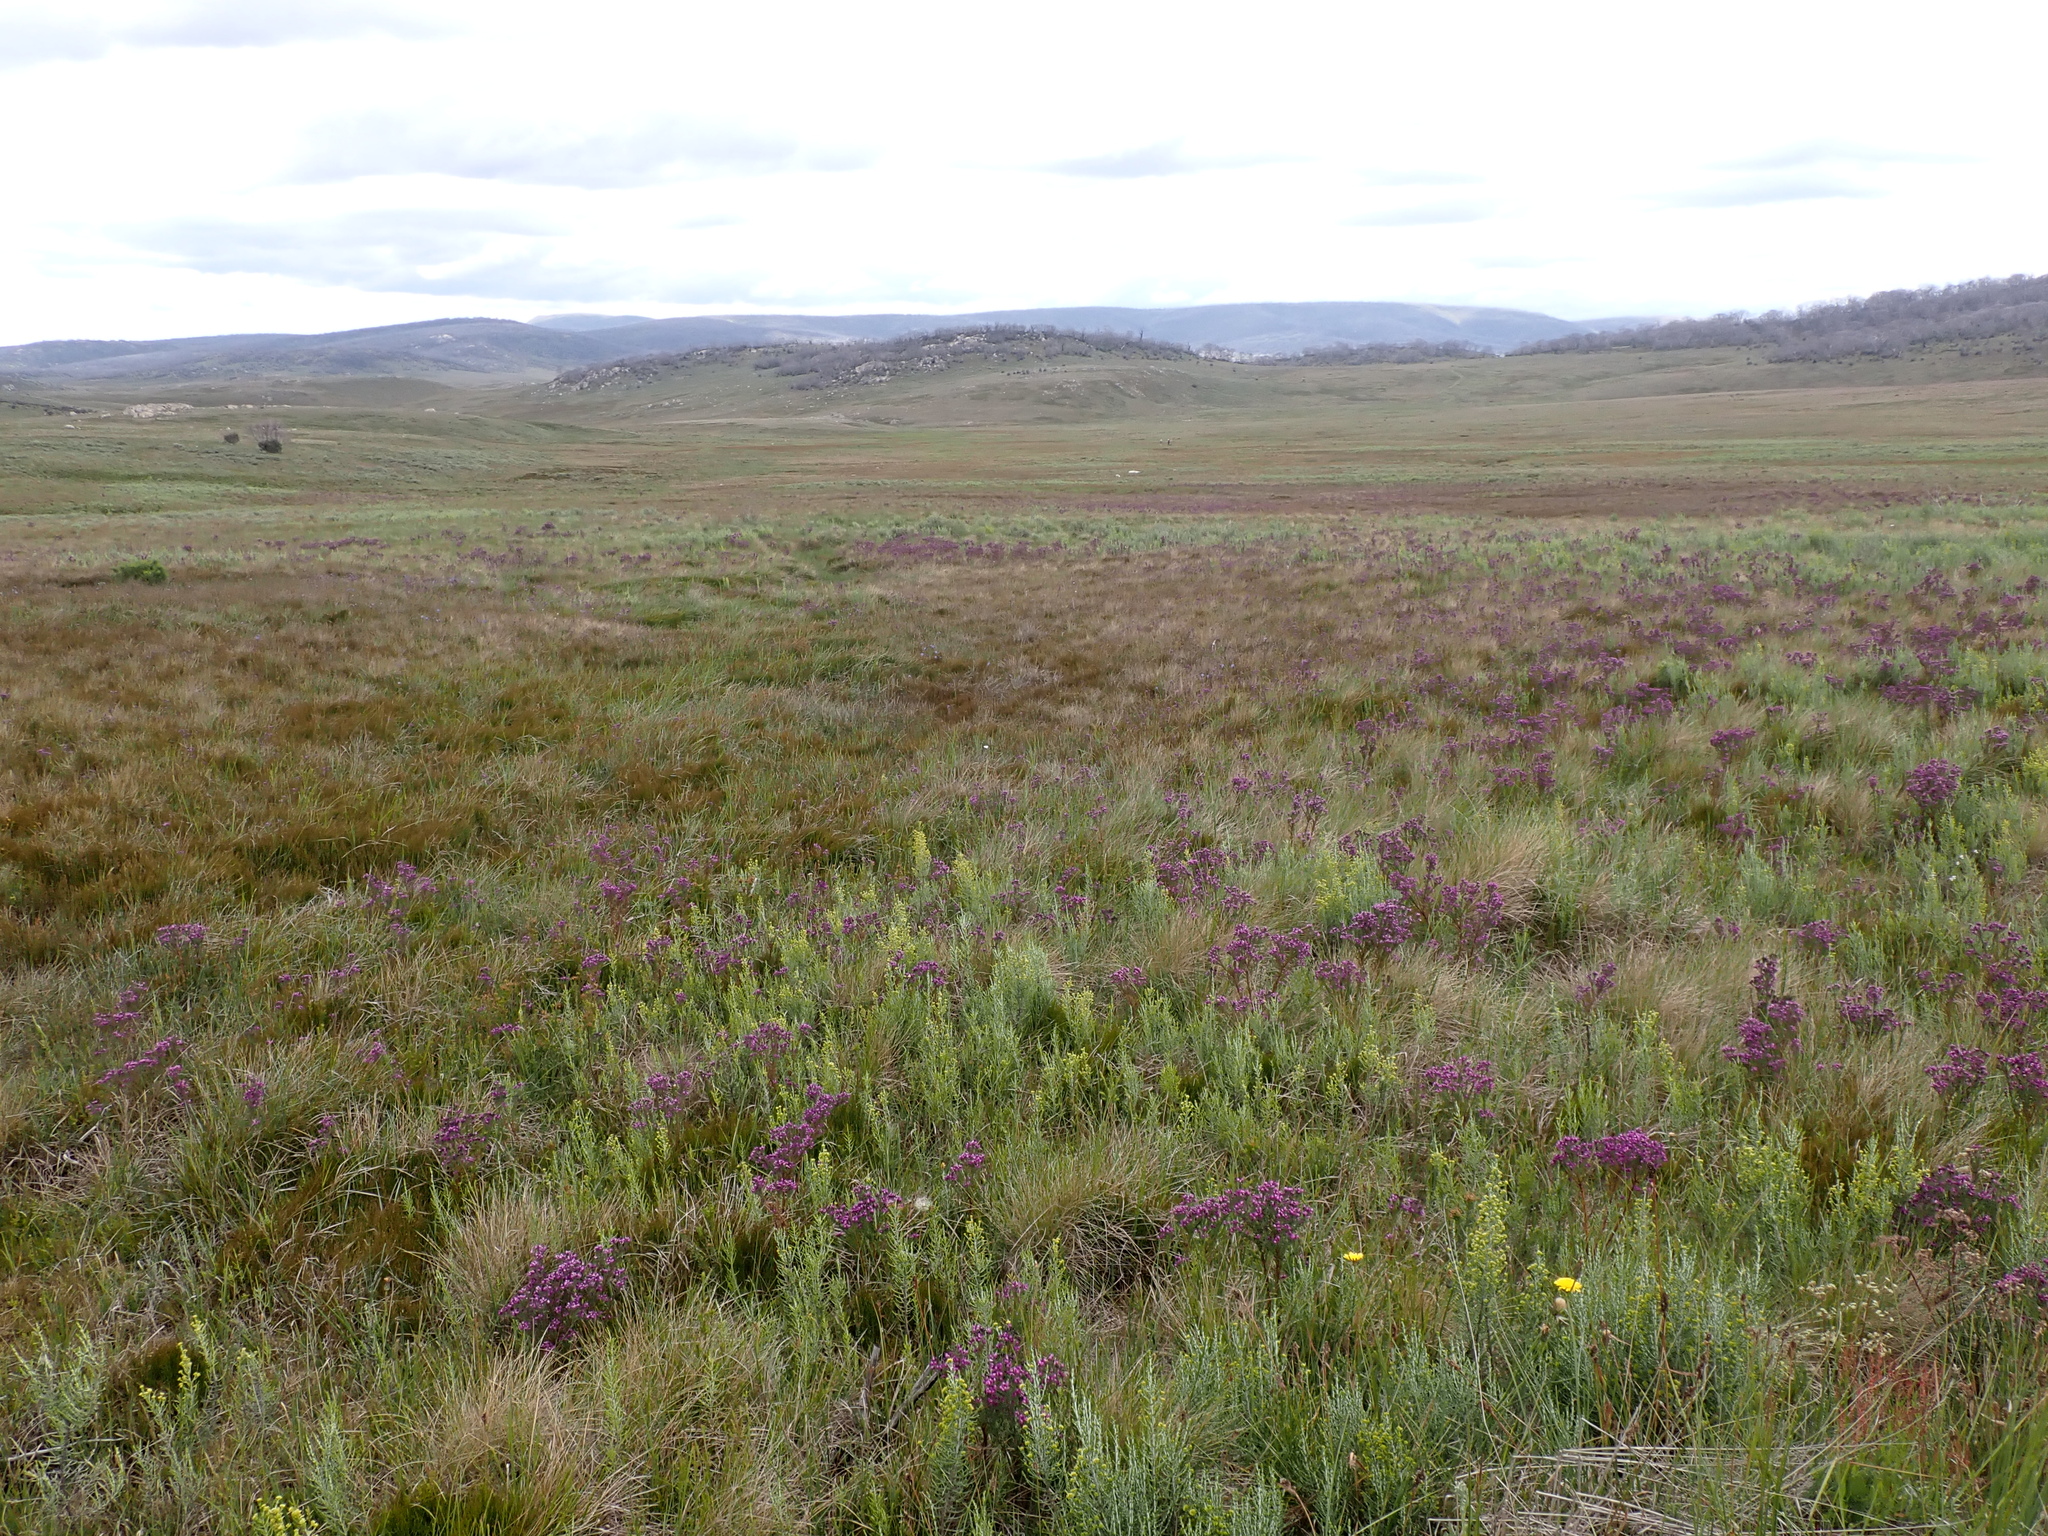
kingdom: Plantae
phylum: Tracheophyta
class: Liliopsida
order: Asparagales
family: Orchidaceae
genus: Pterostylis
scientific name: Pterostylis crassicaulis
